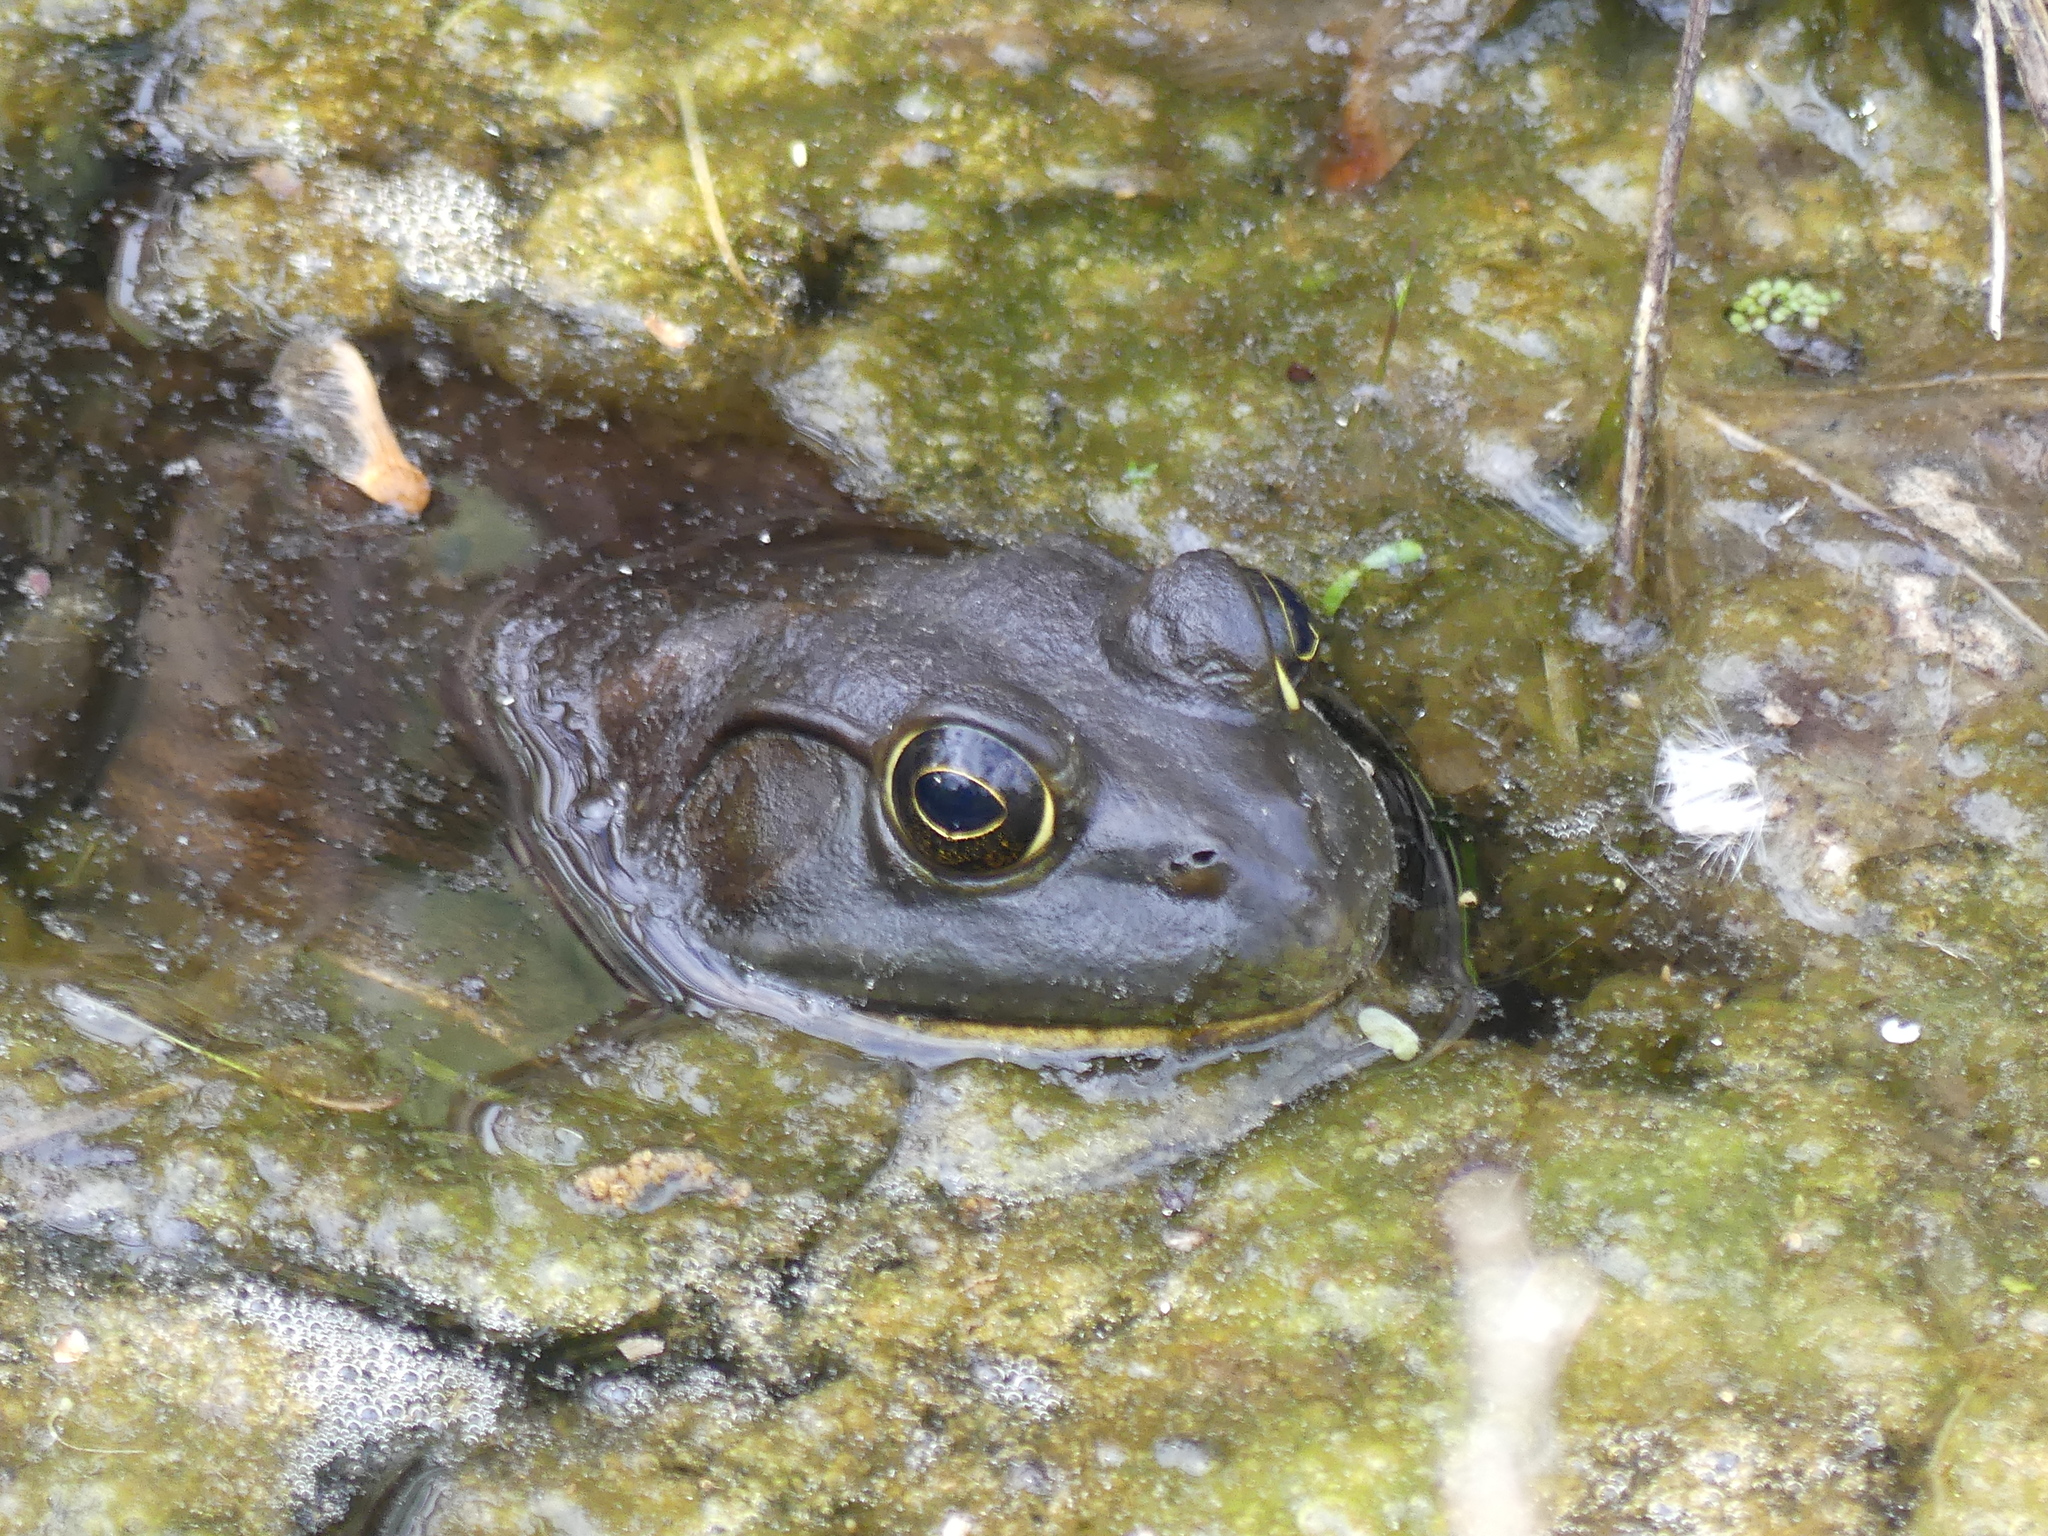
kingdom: Animalia
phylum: Chordata
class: Amphibia
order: Anura
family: Ranidae
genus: Lithobates
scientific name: Lithobates catesbeianus
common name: American bullfrog
